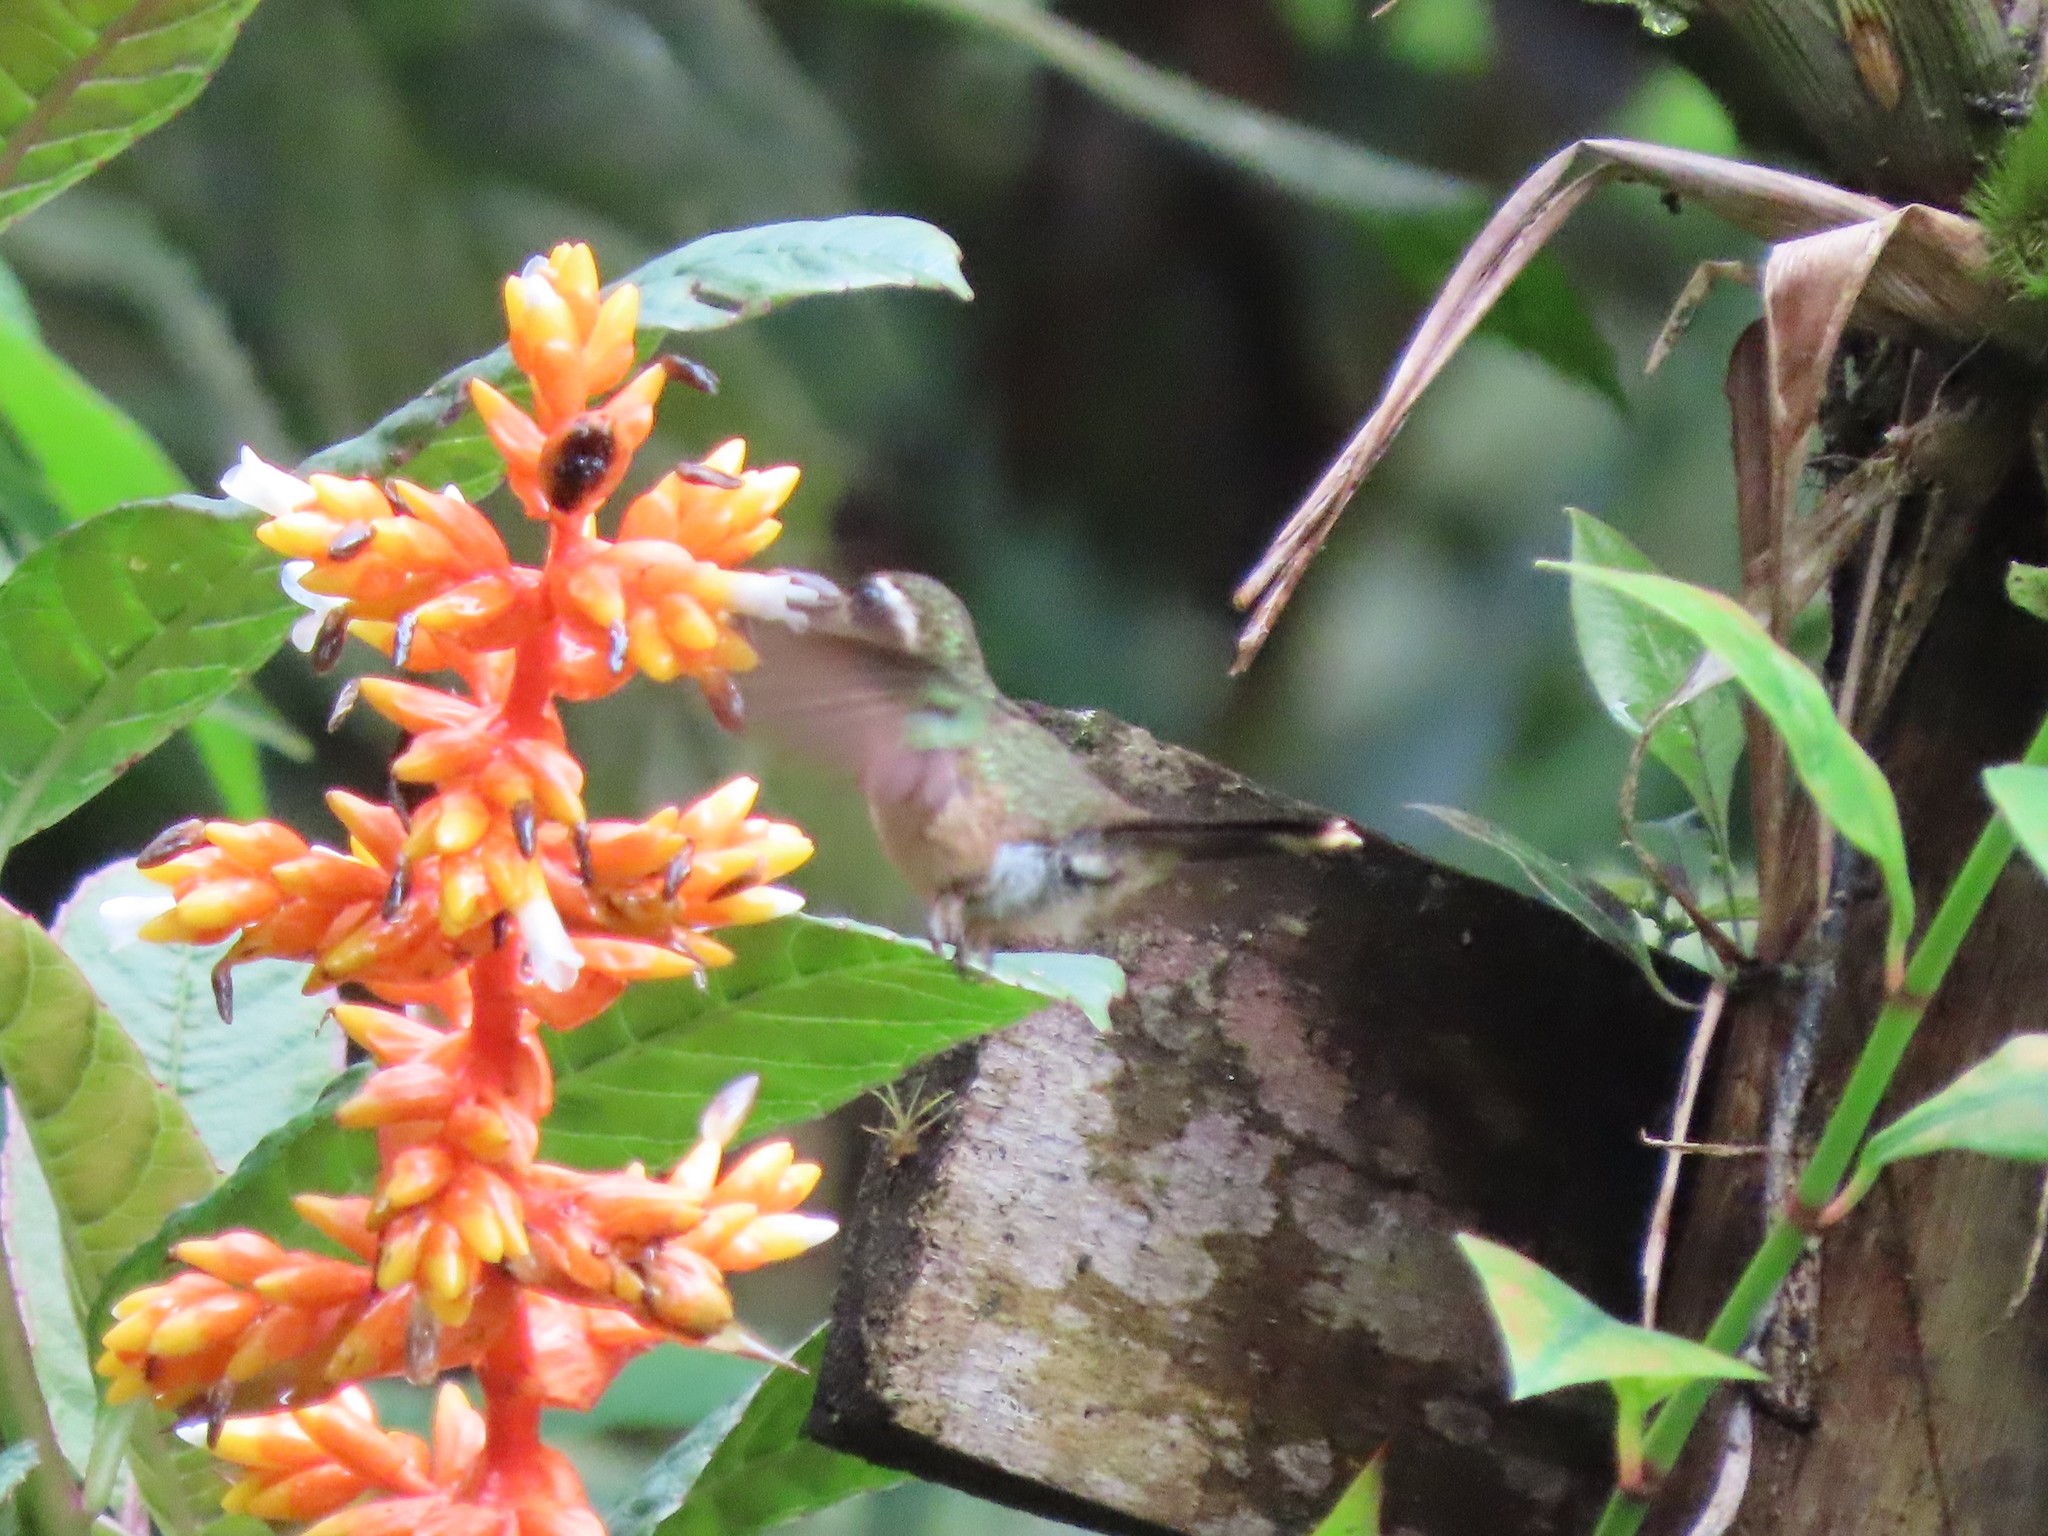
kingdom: Animalia
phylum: Chordata
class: Aves
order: Apodiformes
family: Trochilidae
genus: Adelomyia
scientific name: Adelomyia melanogenys
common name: Speckled hummingbird
